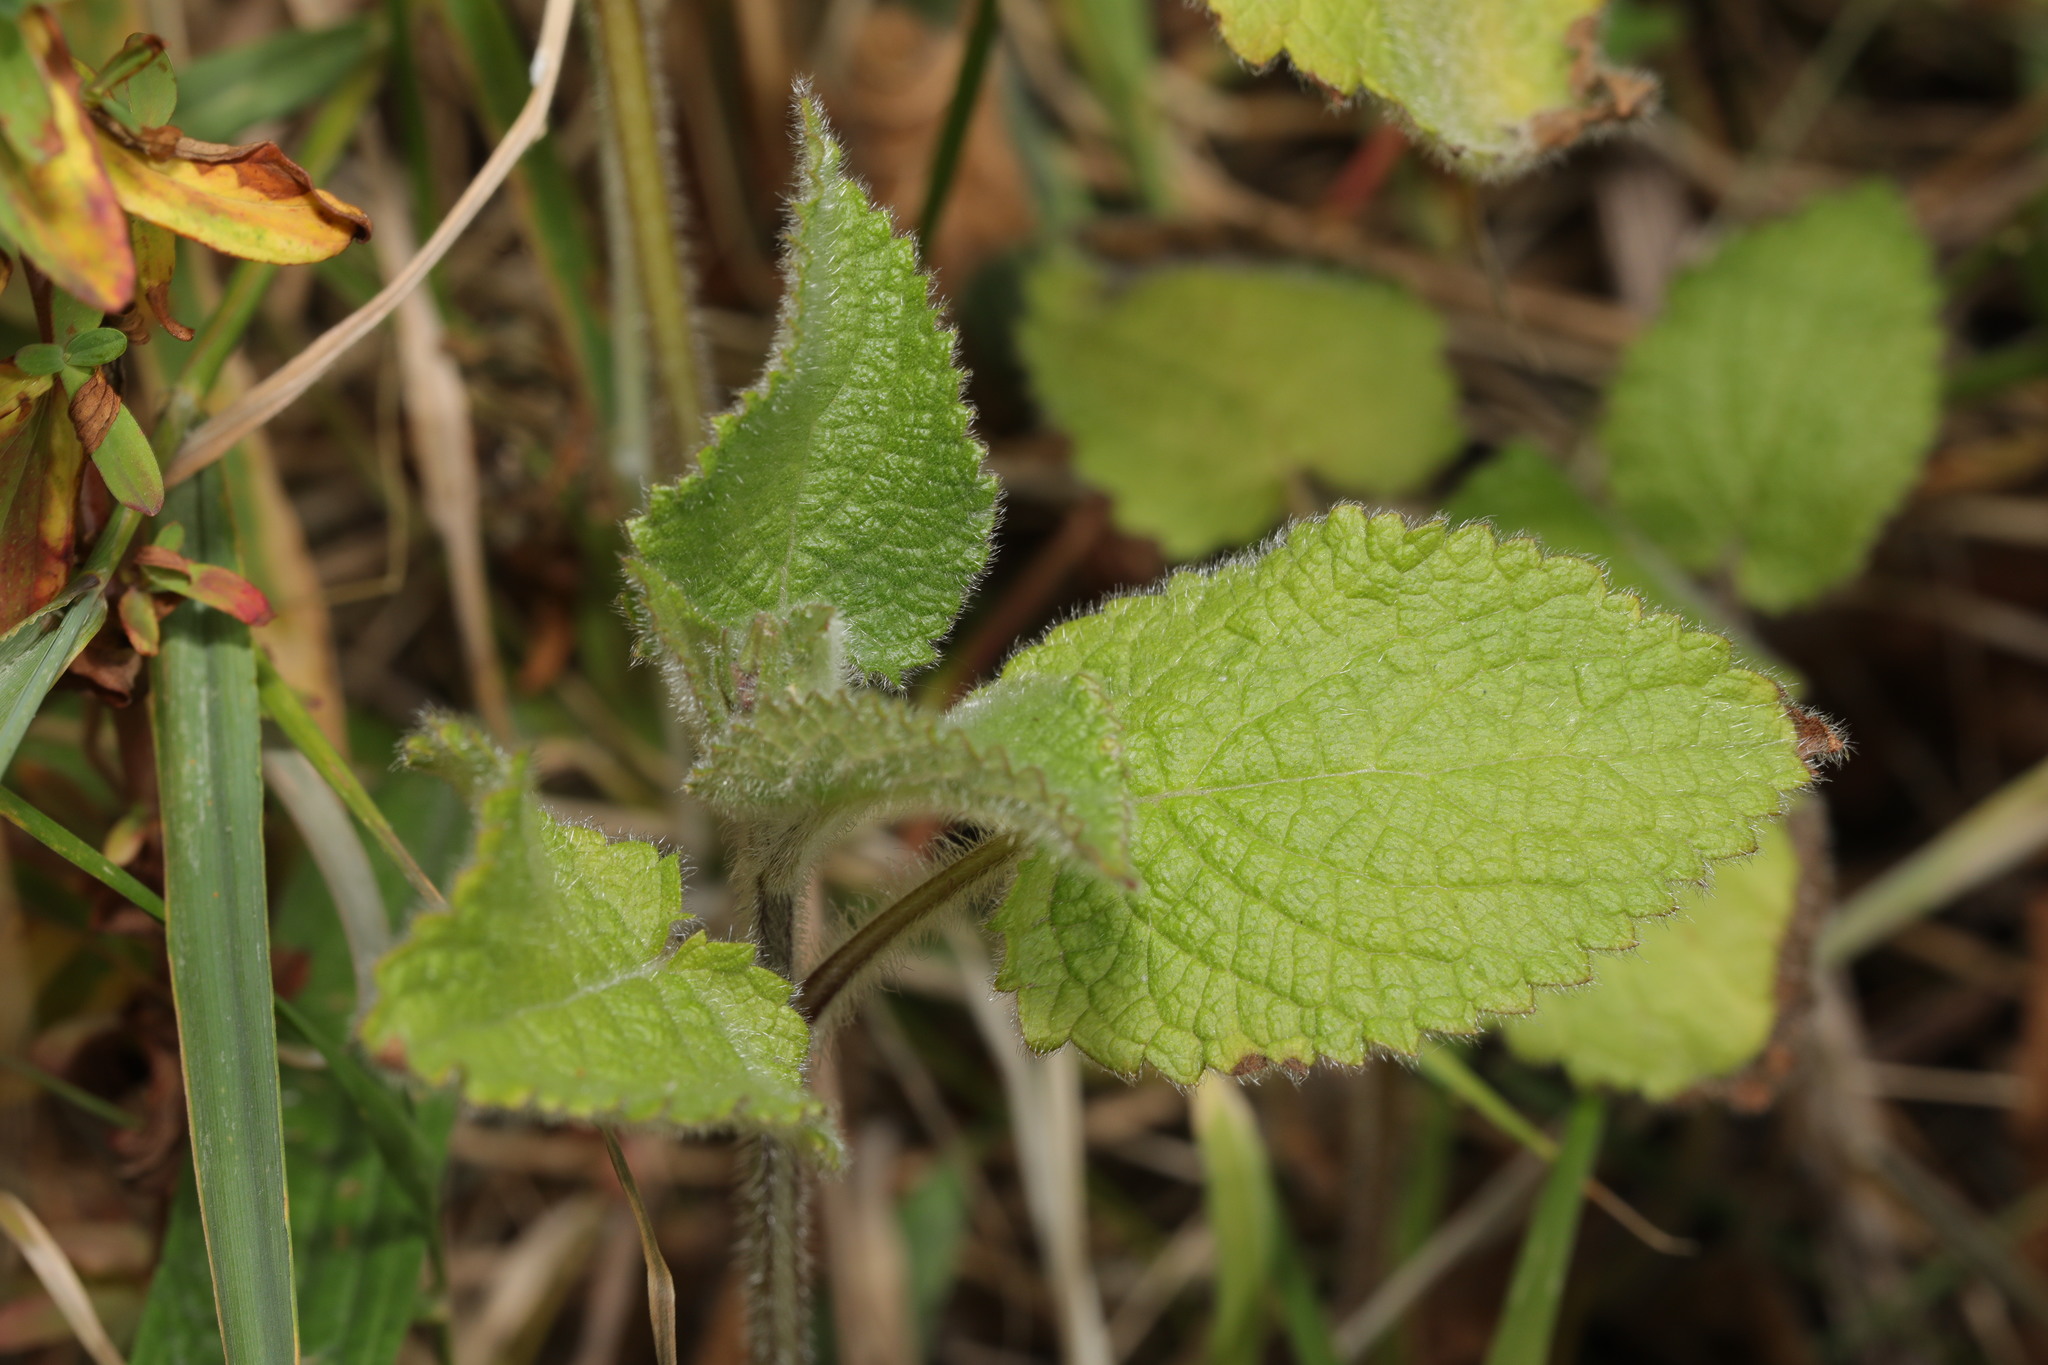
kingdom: Plantae
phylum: Tracheophyta
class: Magnoliopsida
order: Lamiales
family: Lamiaceae
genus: Stachys
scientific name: Stachys sylvatica
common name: Hedge woundwort
